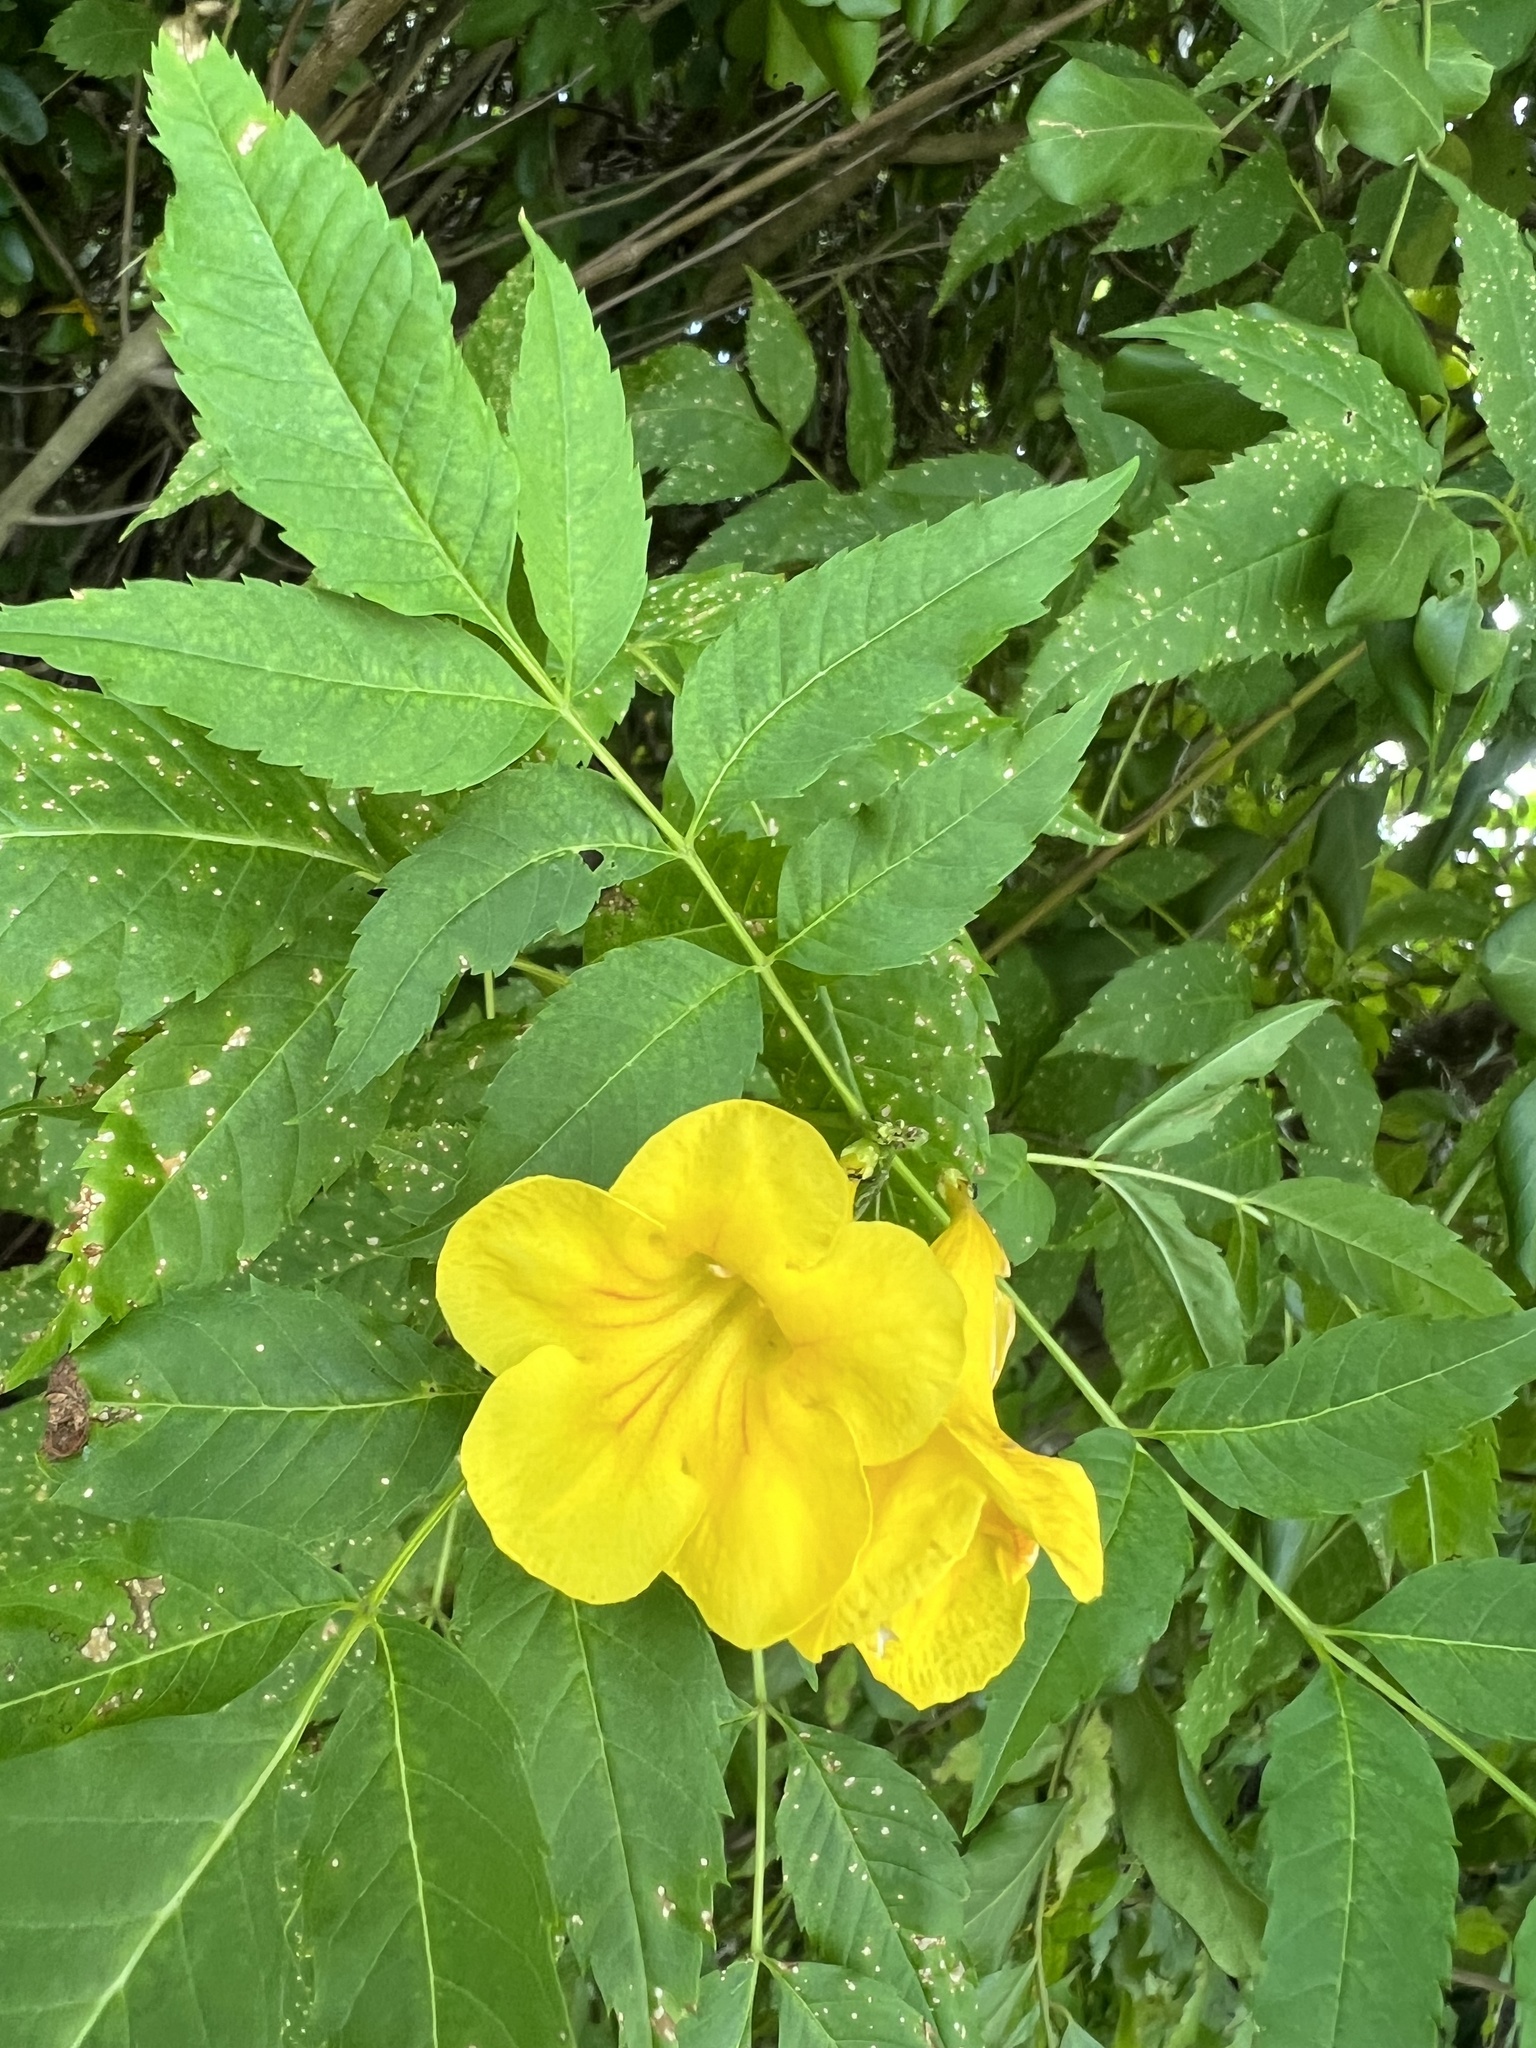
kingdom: Plantae
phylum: Tracheophyta
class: Magnoliopsida
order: Lamiales
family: Bignoniaceae
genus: Tecoma
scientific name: Tecoma stans
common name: Yellow trumpetbush
